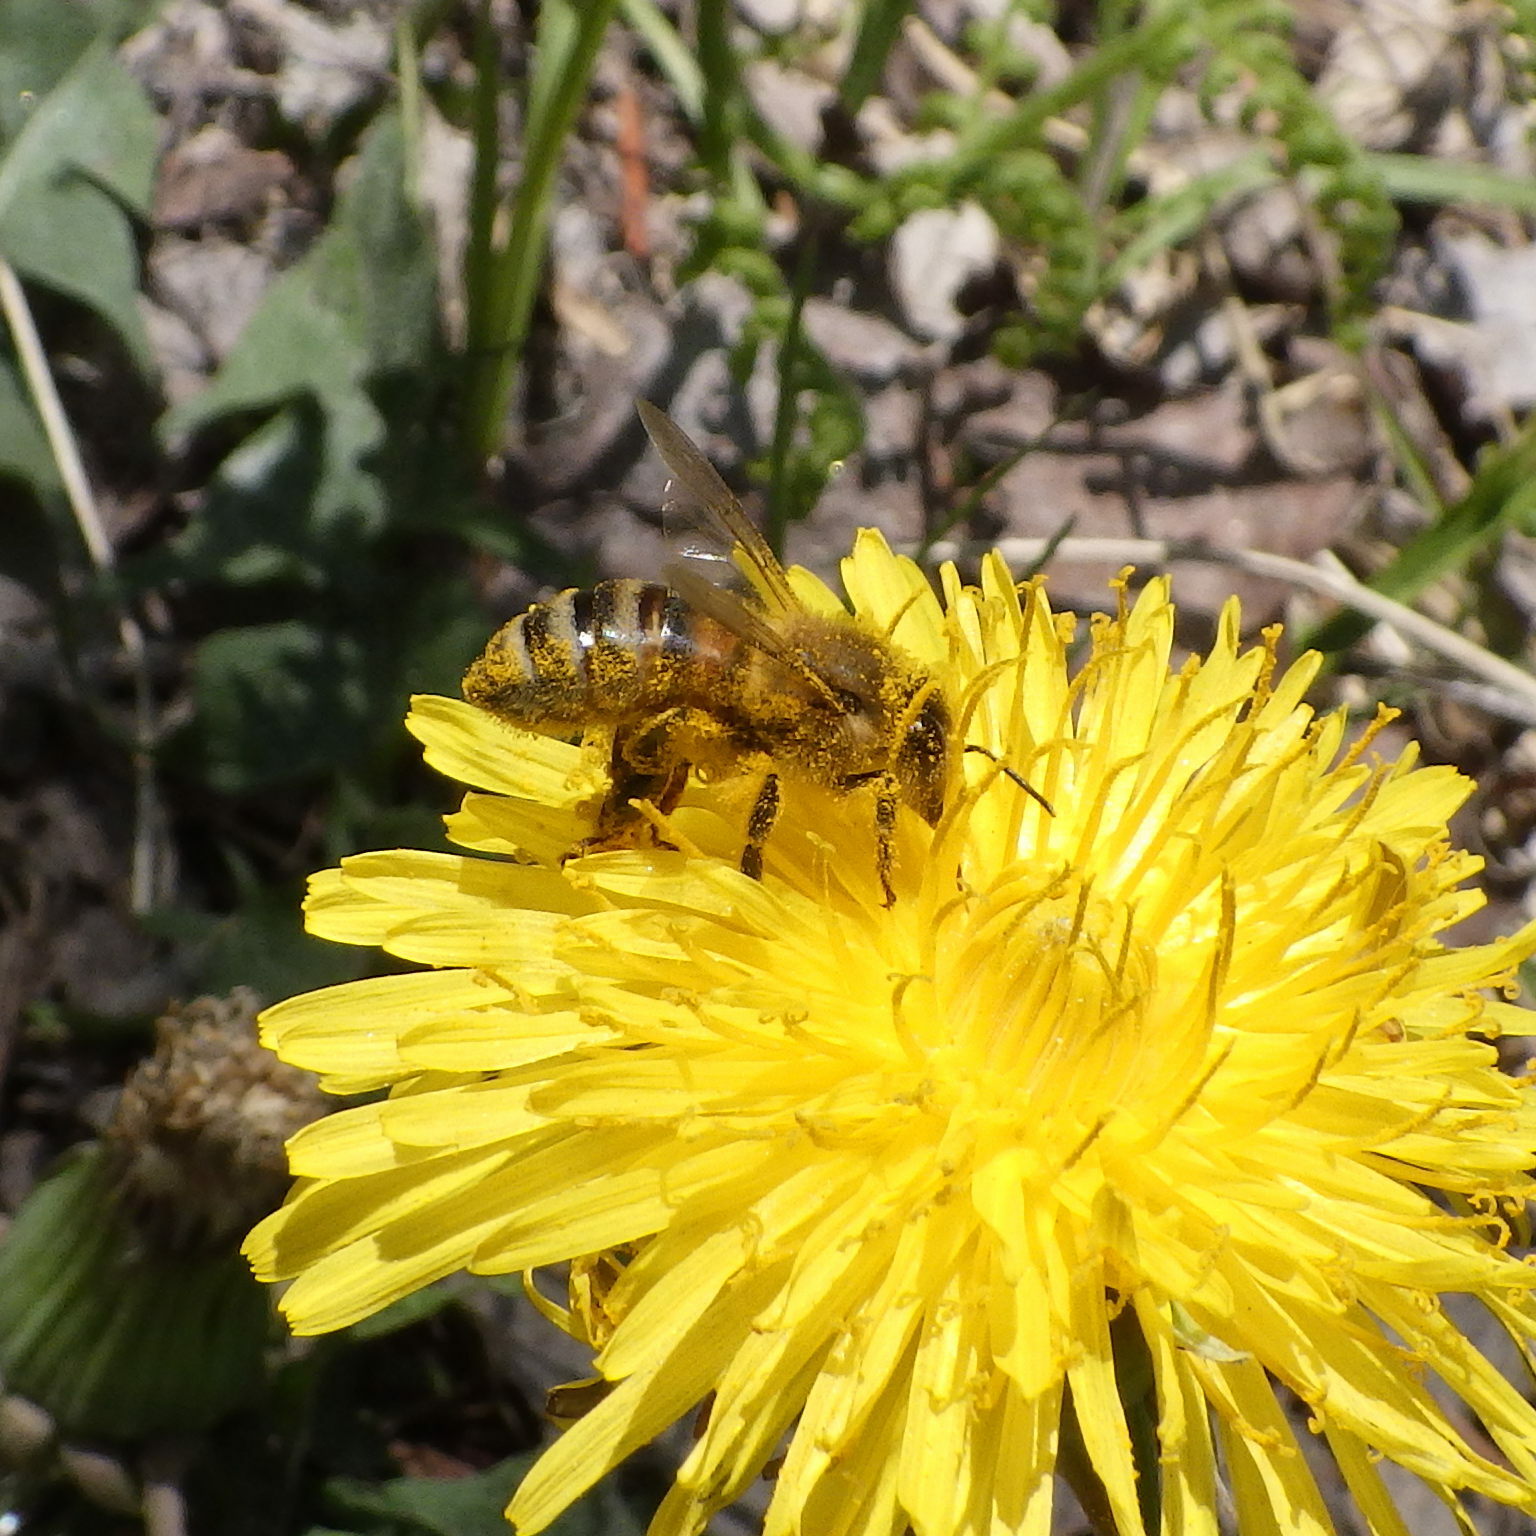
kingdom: Animalia
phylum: Arthropoda
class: Insecta
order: Hymenoptera
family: Apidae
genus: Apis
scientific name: Apis mellifera
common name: Honey bee
